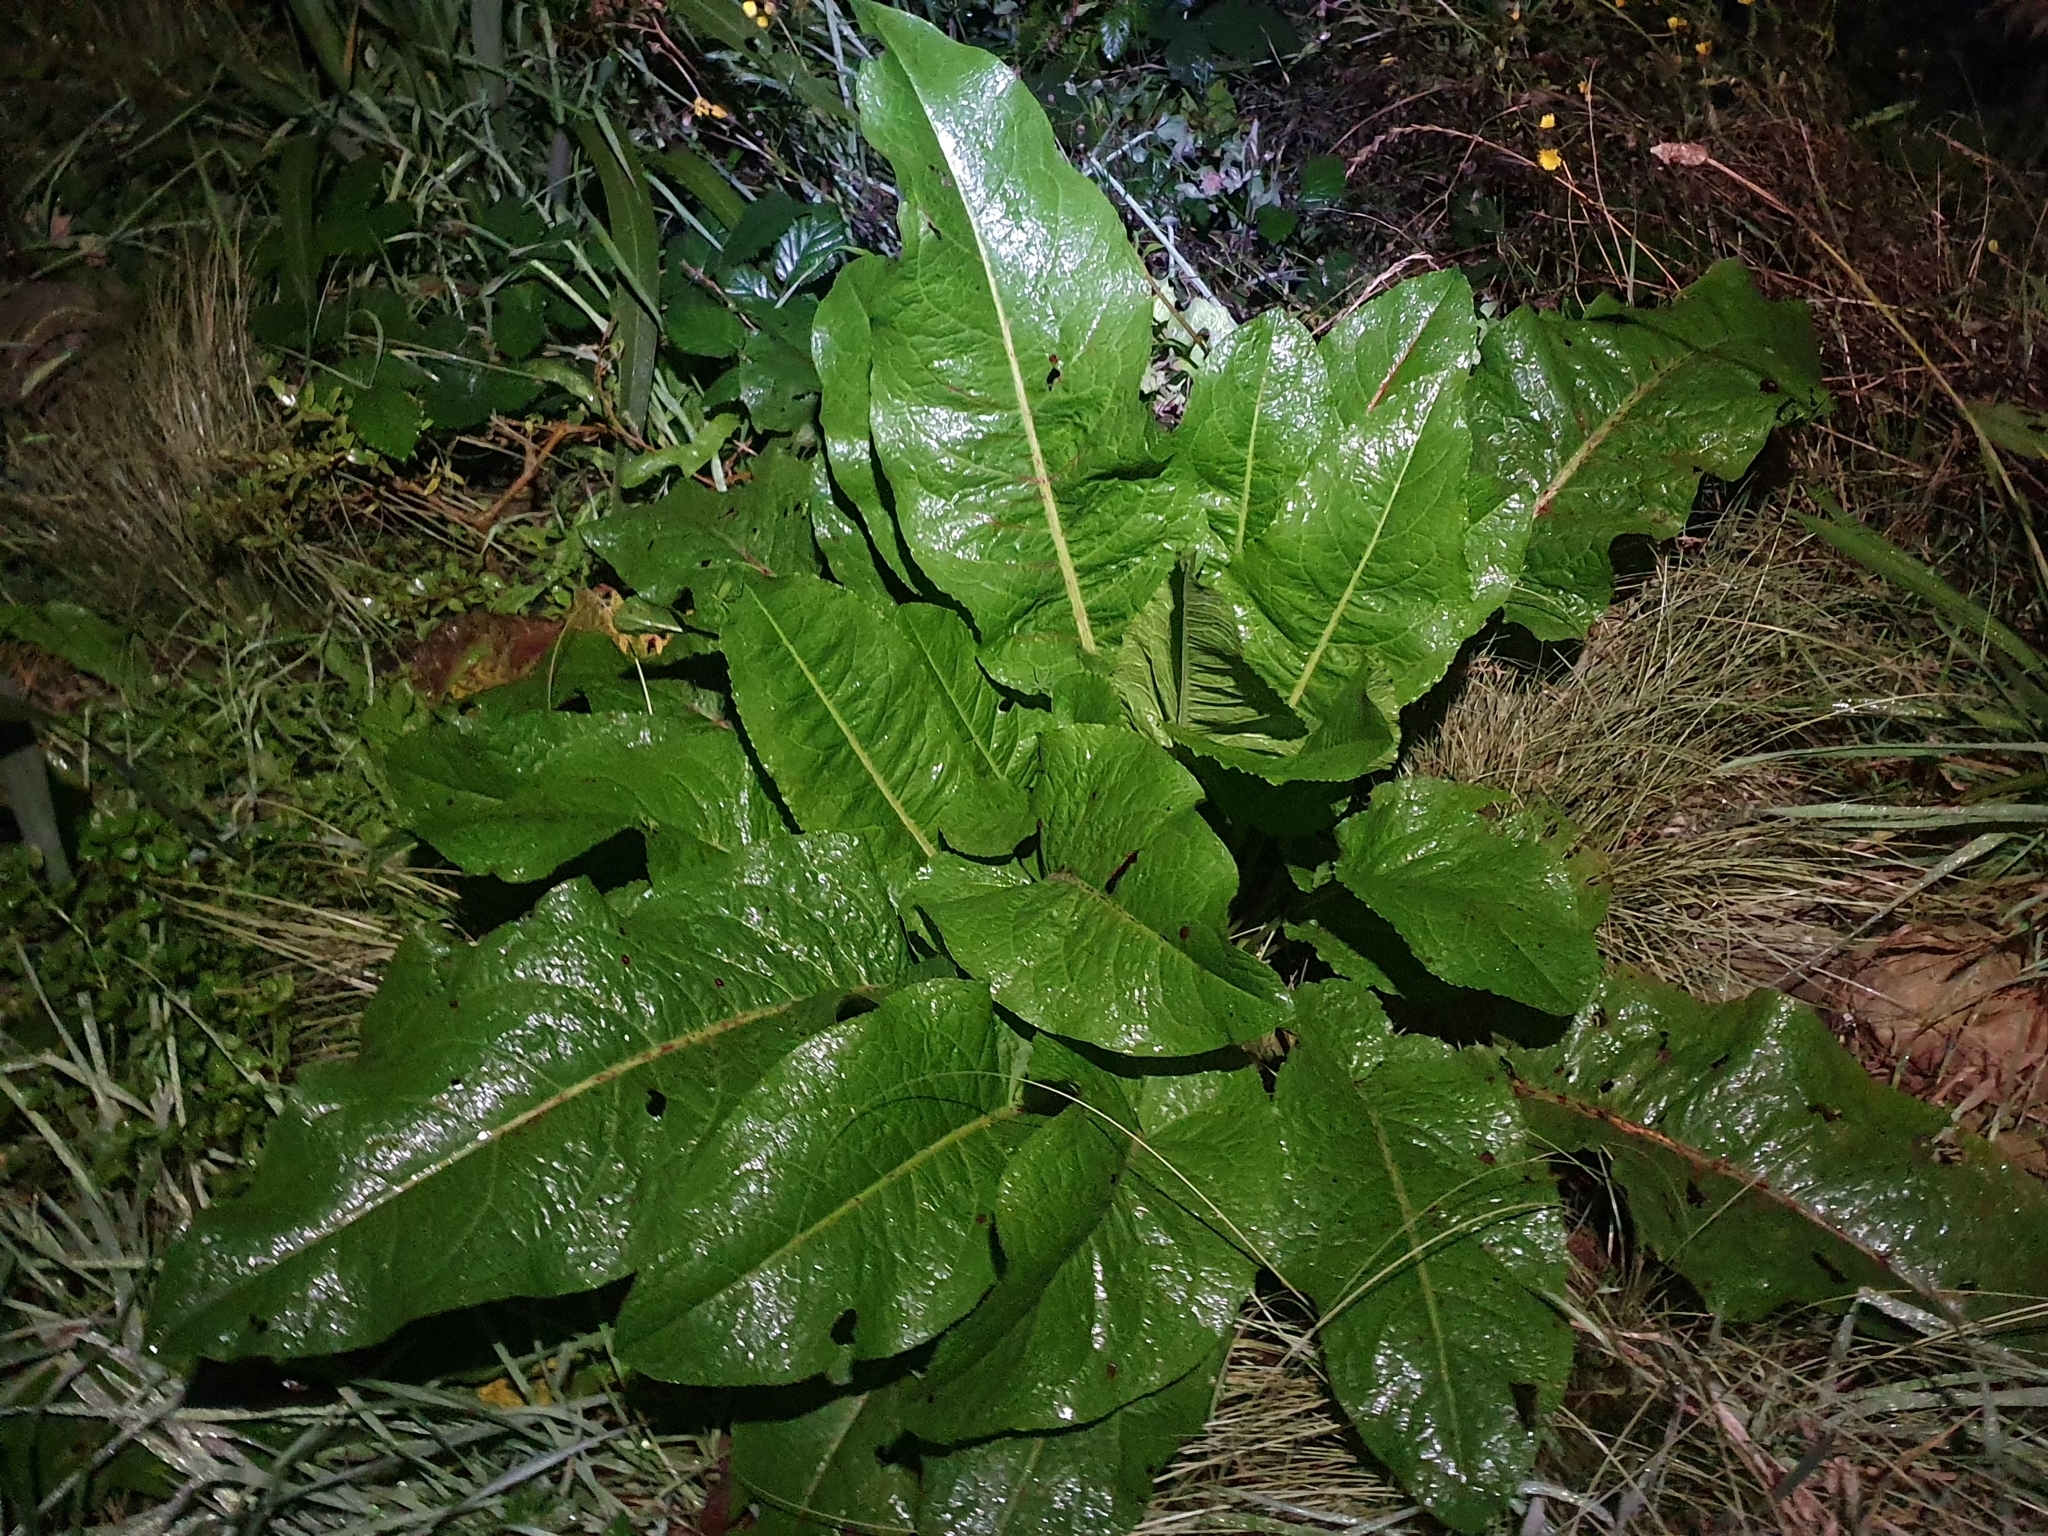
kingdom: Plantae
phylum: Tracheophyta
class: Magnoliopsida
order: Caryophyllales
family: Polygonaceae
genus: Rumex
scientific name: Rumex obtusifolius
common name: Bitter dock
